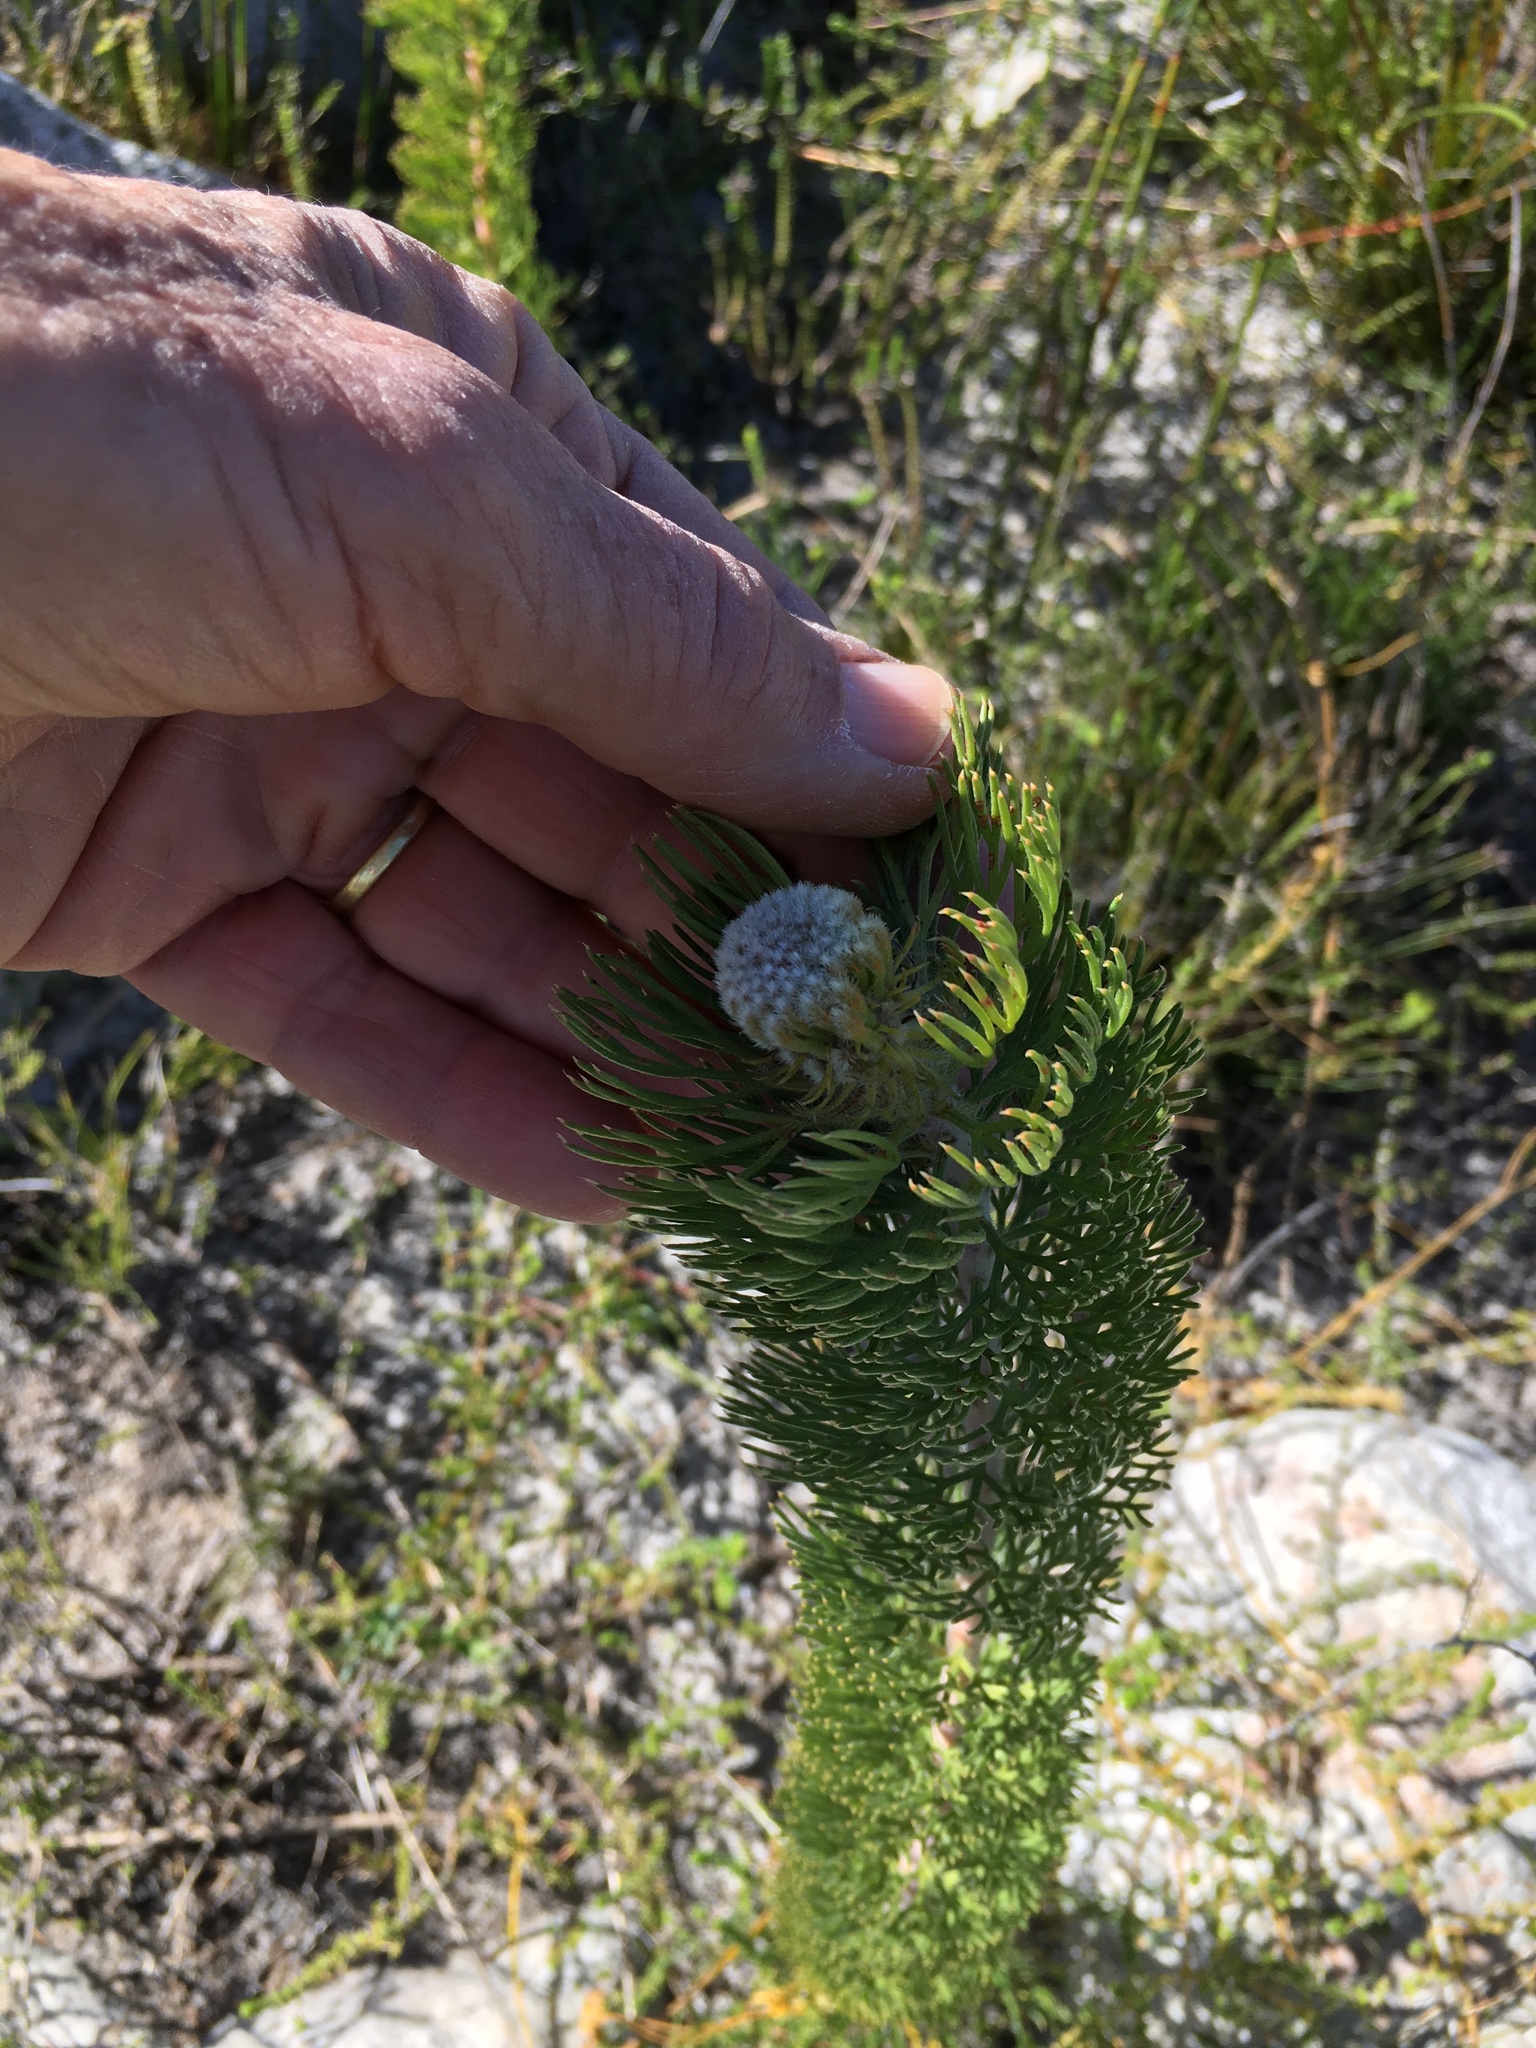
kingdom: Plantae
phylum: Tracheophyta
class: Magnoliopsida
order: Proteales
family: Proteaceae
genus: Serruria
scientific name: Serruria villosa
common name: Golden spiderhead
